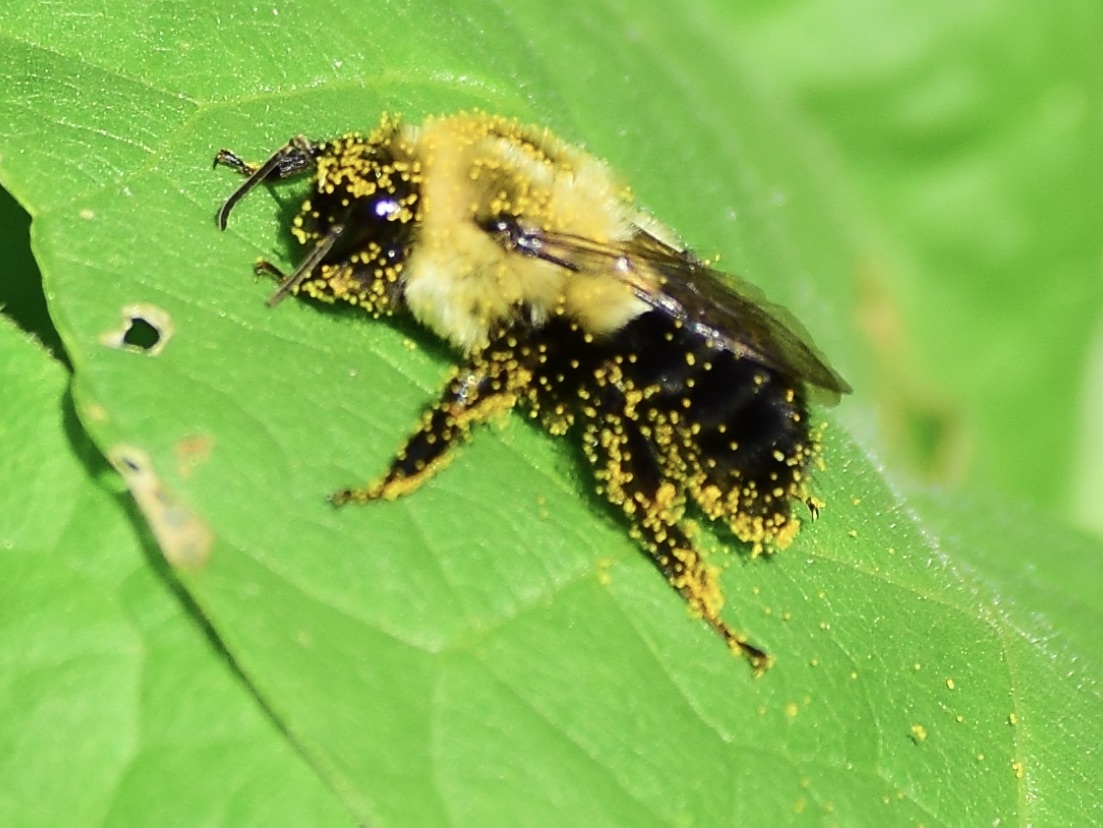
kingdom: Animalia
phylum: Arthropoda
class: Insecta
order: Hymenoptera
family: Apidae
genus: Bombus
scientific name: Bombus impatiens
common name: Common eastern bumble bee
